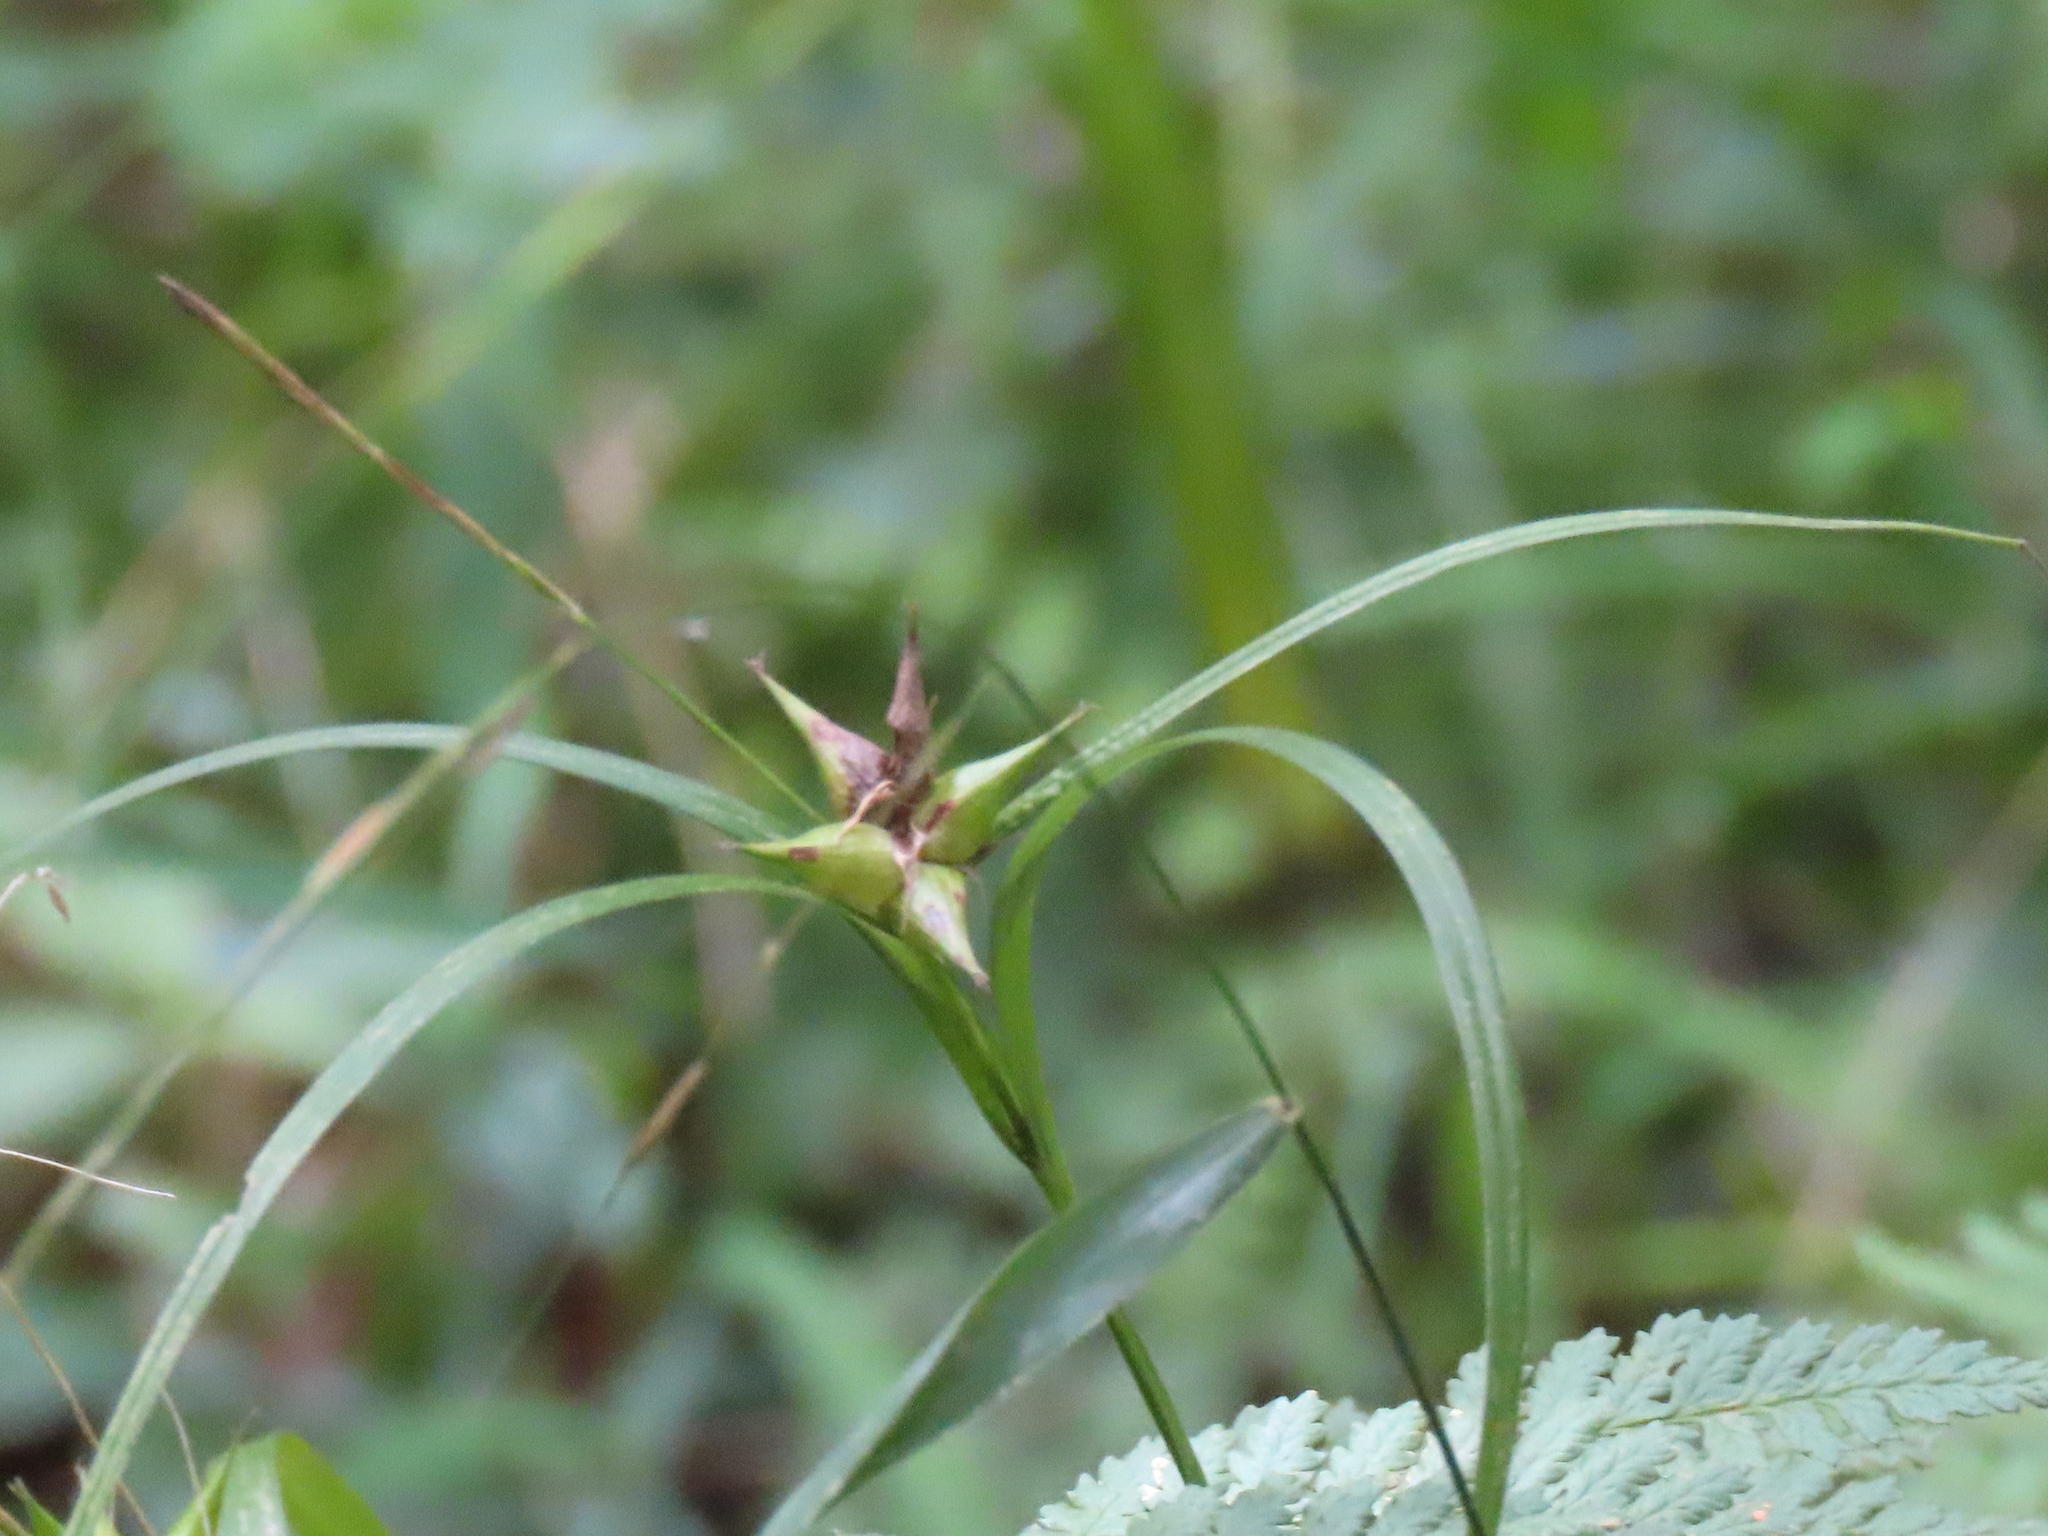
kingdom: Plantae
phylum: Tracheophyta
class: Liliopsida
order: Poales
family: Cyperaceae
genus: Carex
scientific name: Carex intumescens
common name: Greater bladder sedge
